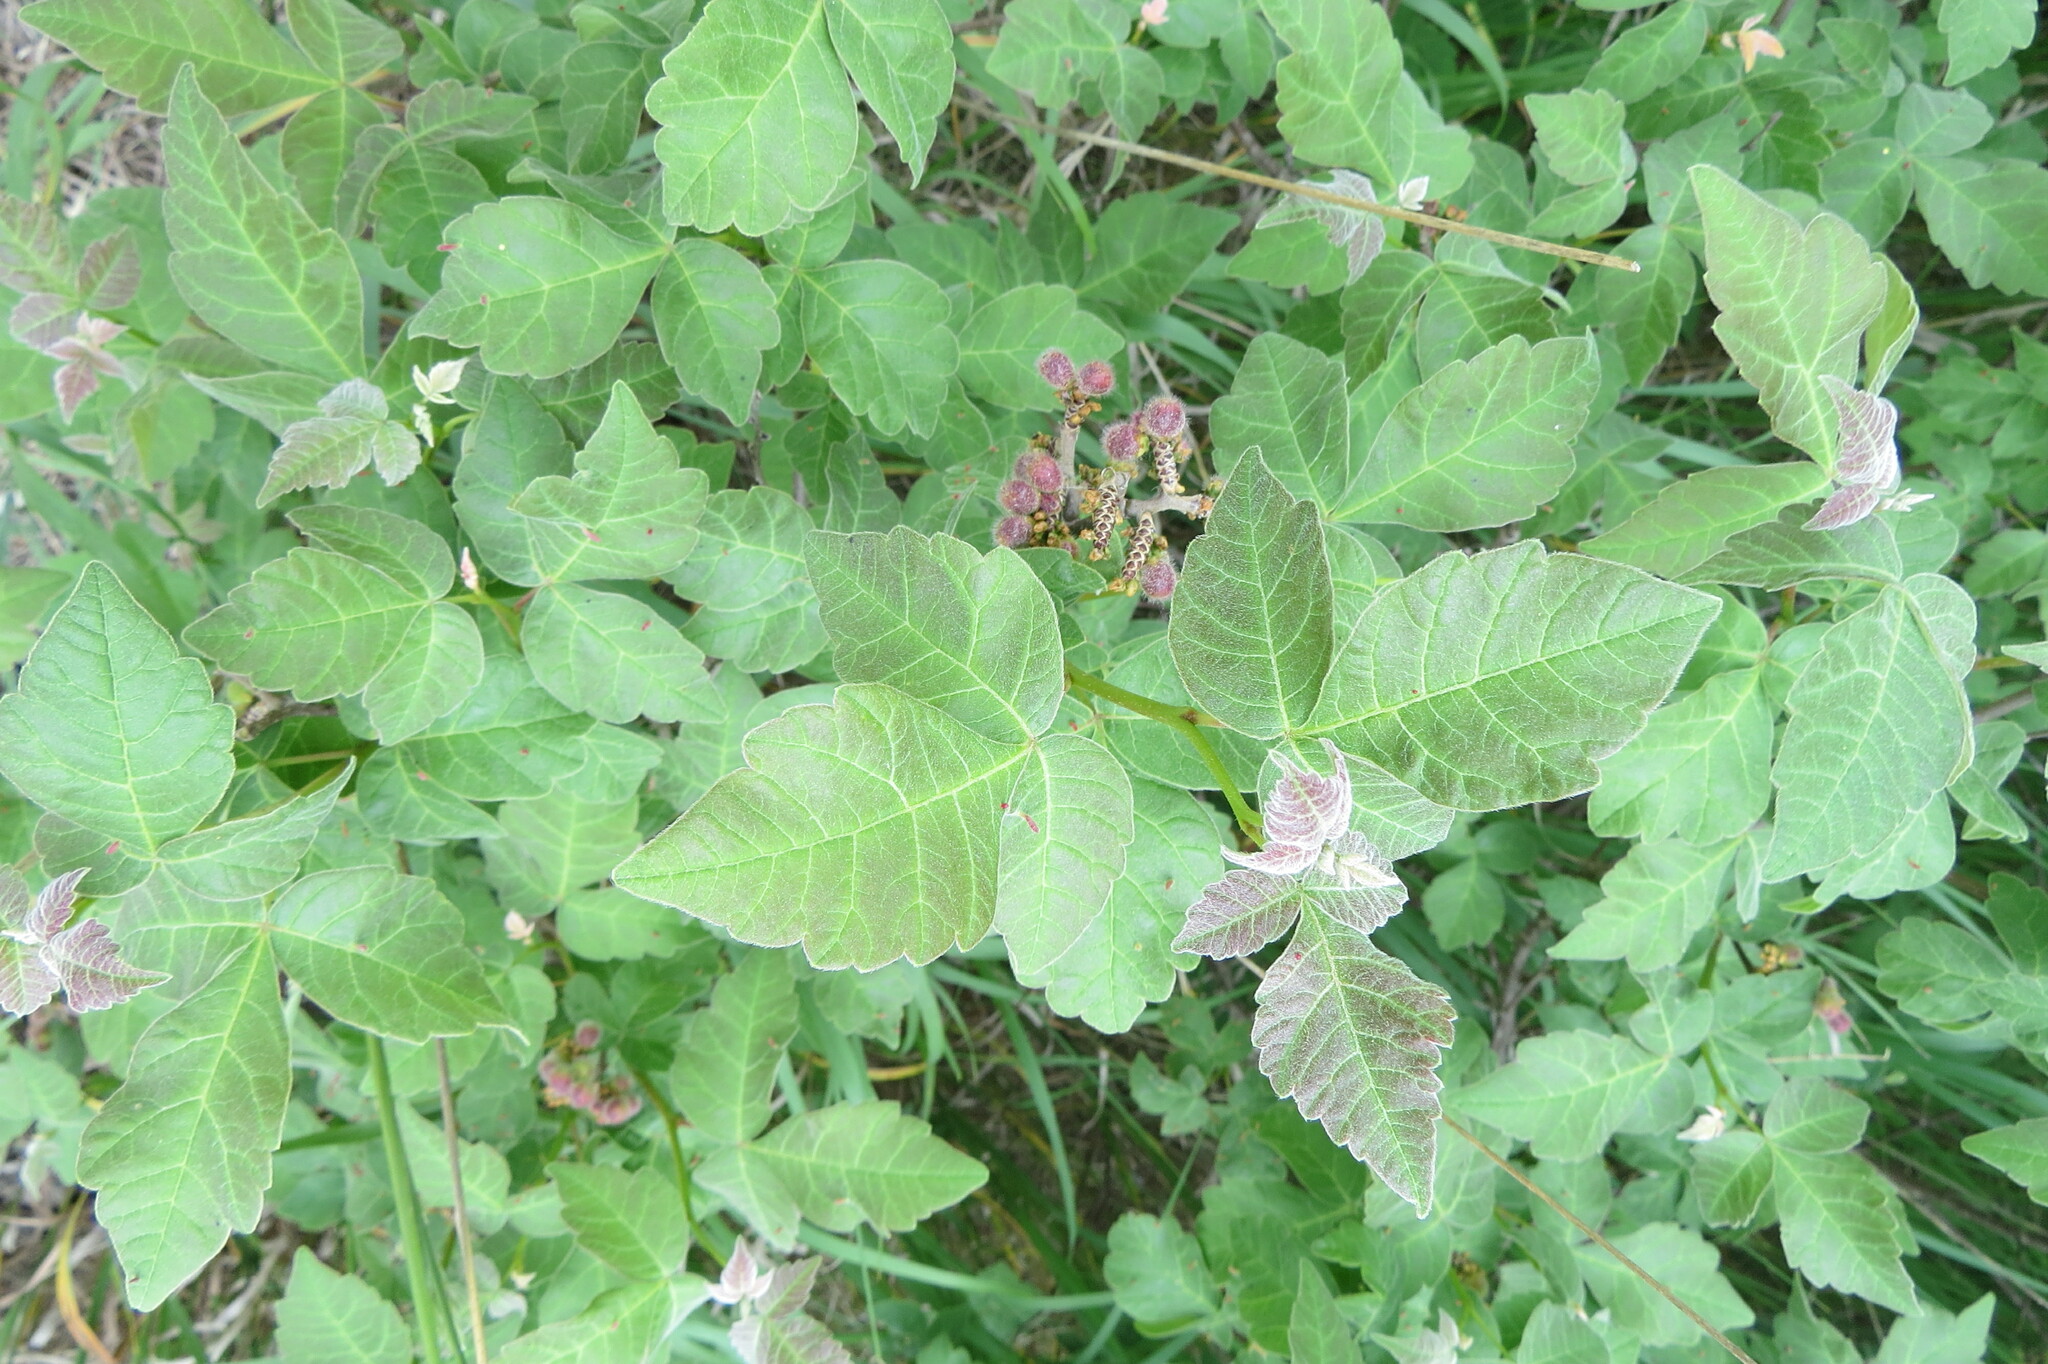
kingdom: Plantae
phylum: Tracheophyta
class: Magnoliopsida
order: Sapindales
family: Anacardiaceae
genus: Rhus
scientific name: Rhus aromatica
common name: Aromatic sumac
